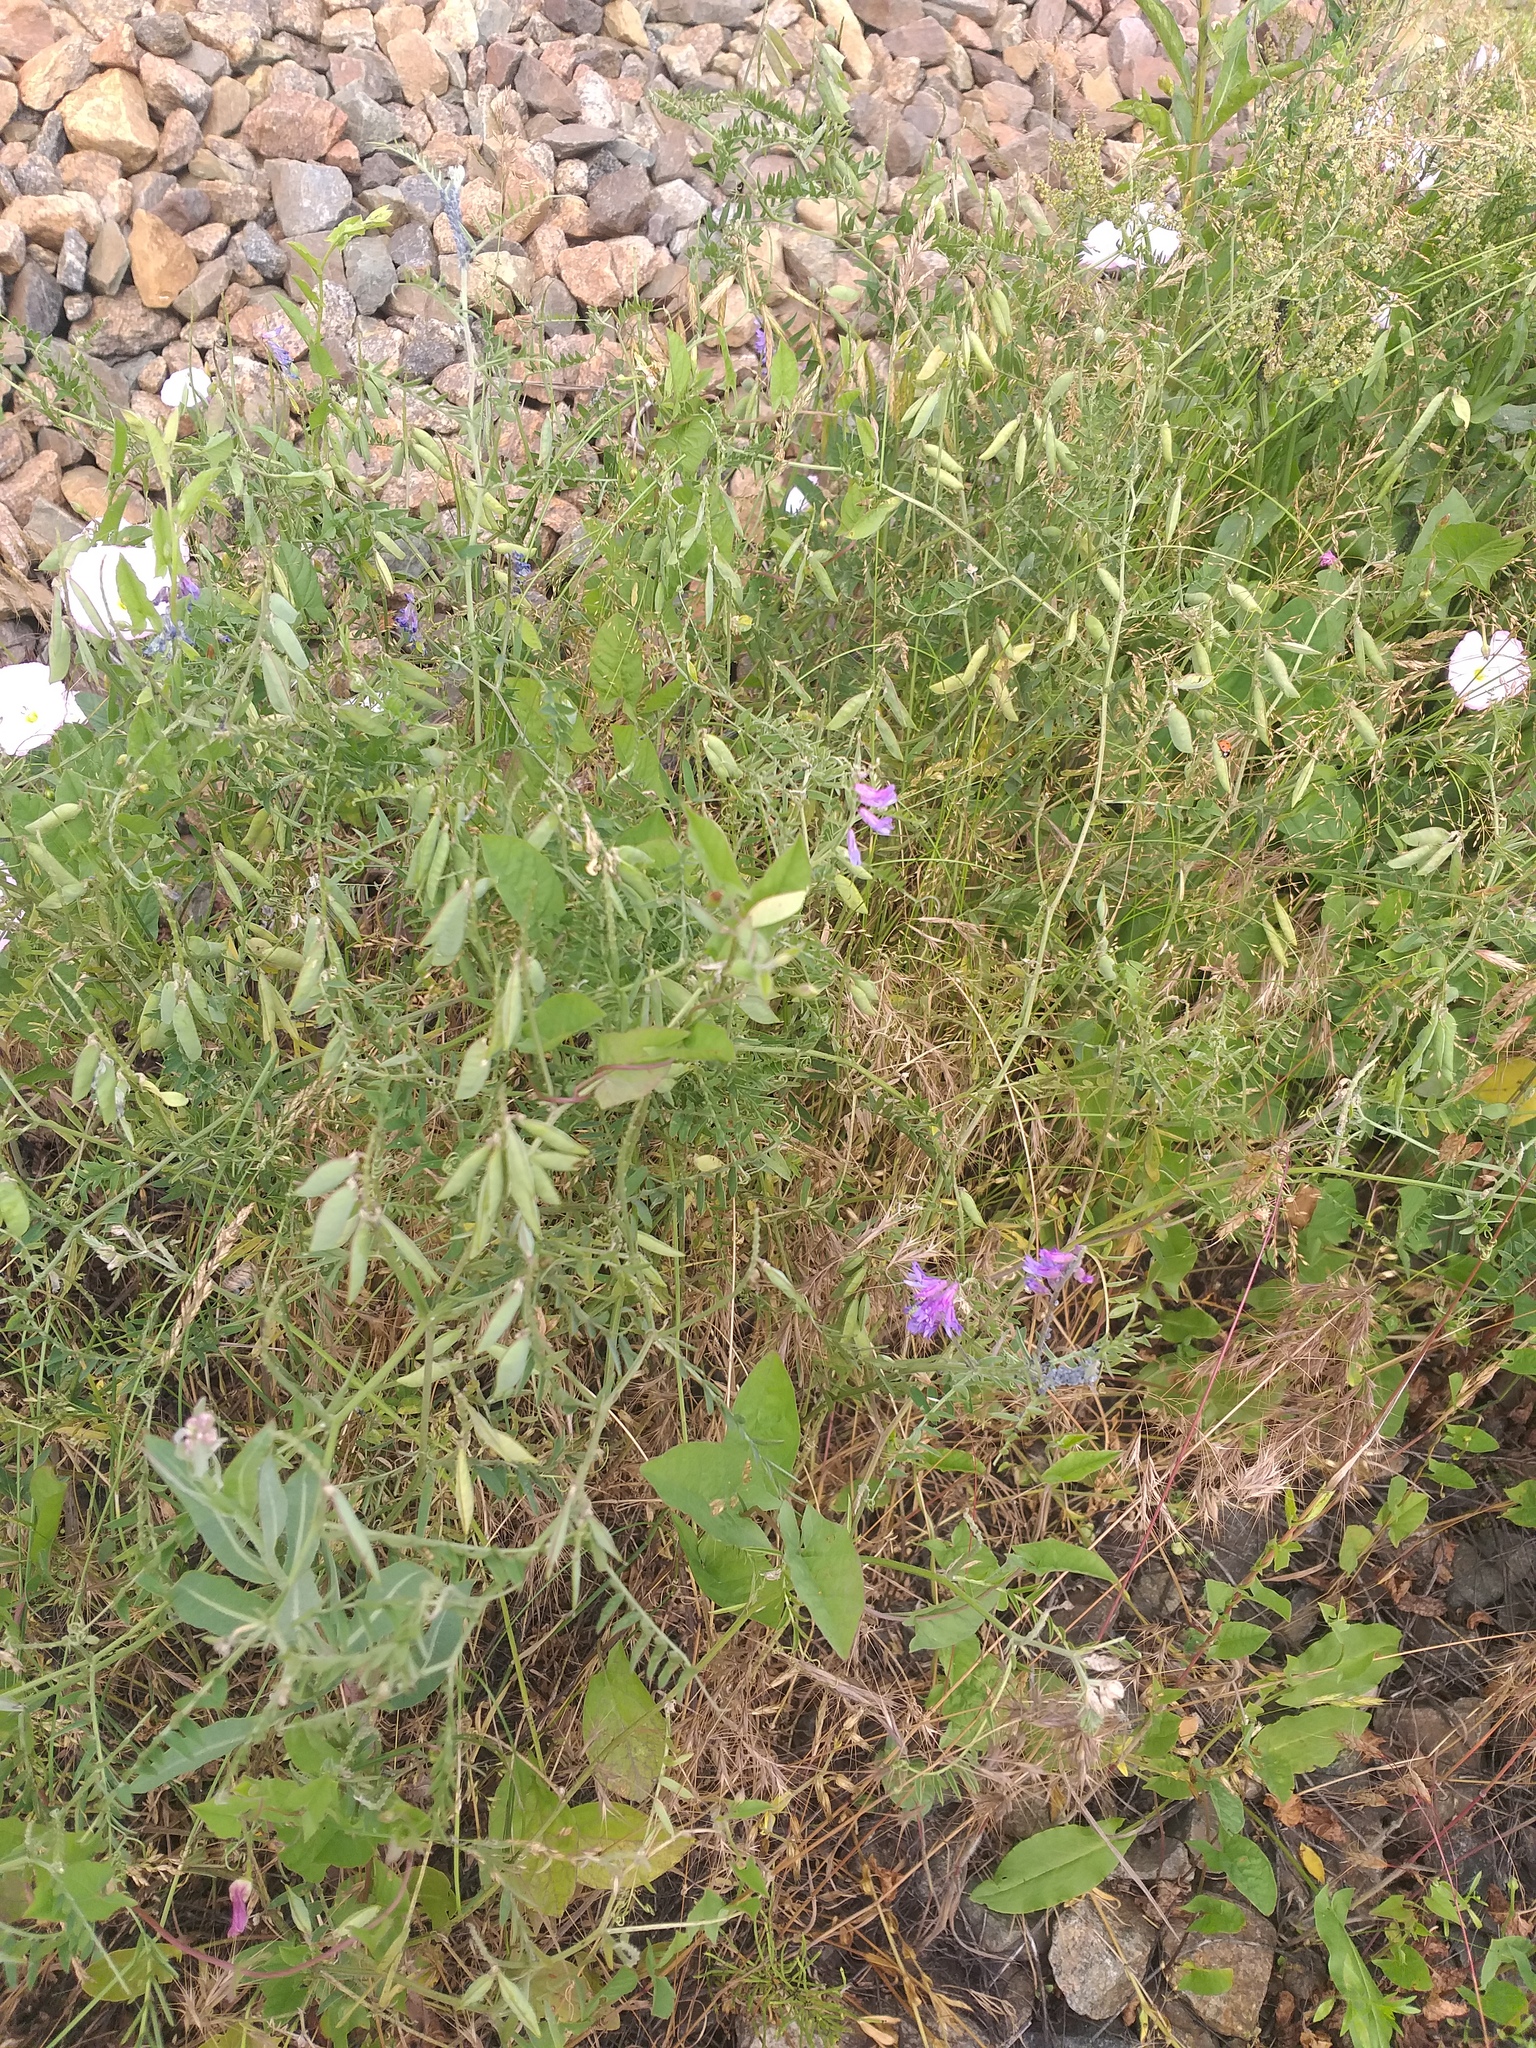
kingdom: Plantae
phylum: Tracheophyta
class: Magnoliopsida
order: Fabales
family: Fabaceae
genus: Vicia
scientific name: Vicia cracca
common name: Bird vetch
